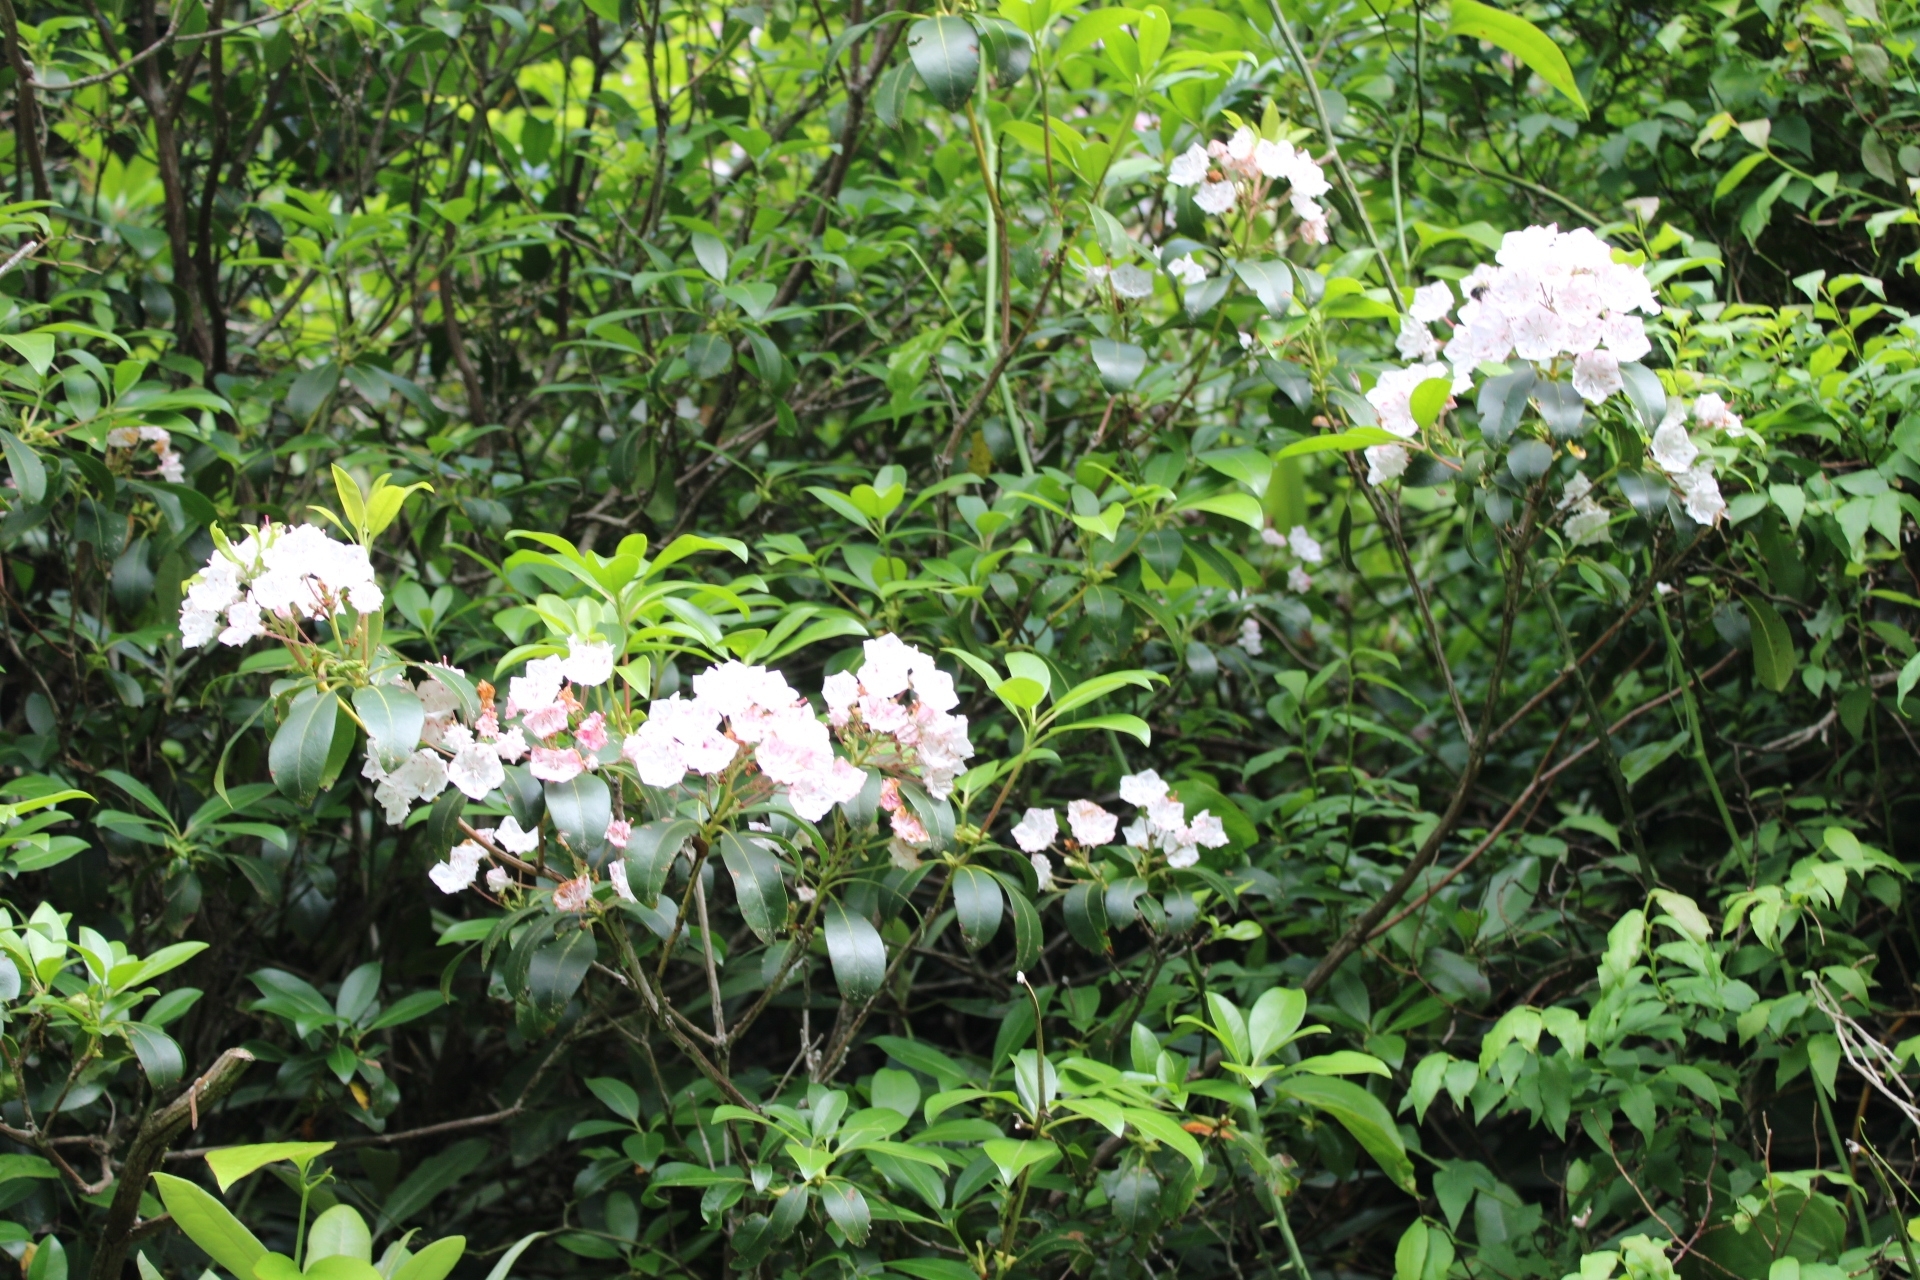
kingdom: Plantae
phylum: Tracheophyta
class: Magnoliopsida
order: Ericales
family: Ericaceae
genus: Kalmia
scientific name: Kalmia latifolia
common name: Mountain-laurel
